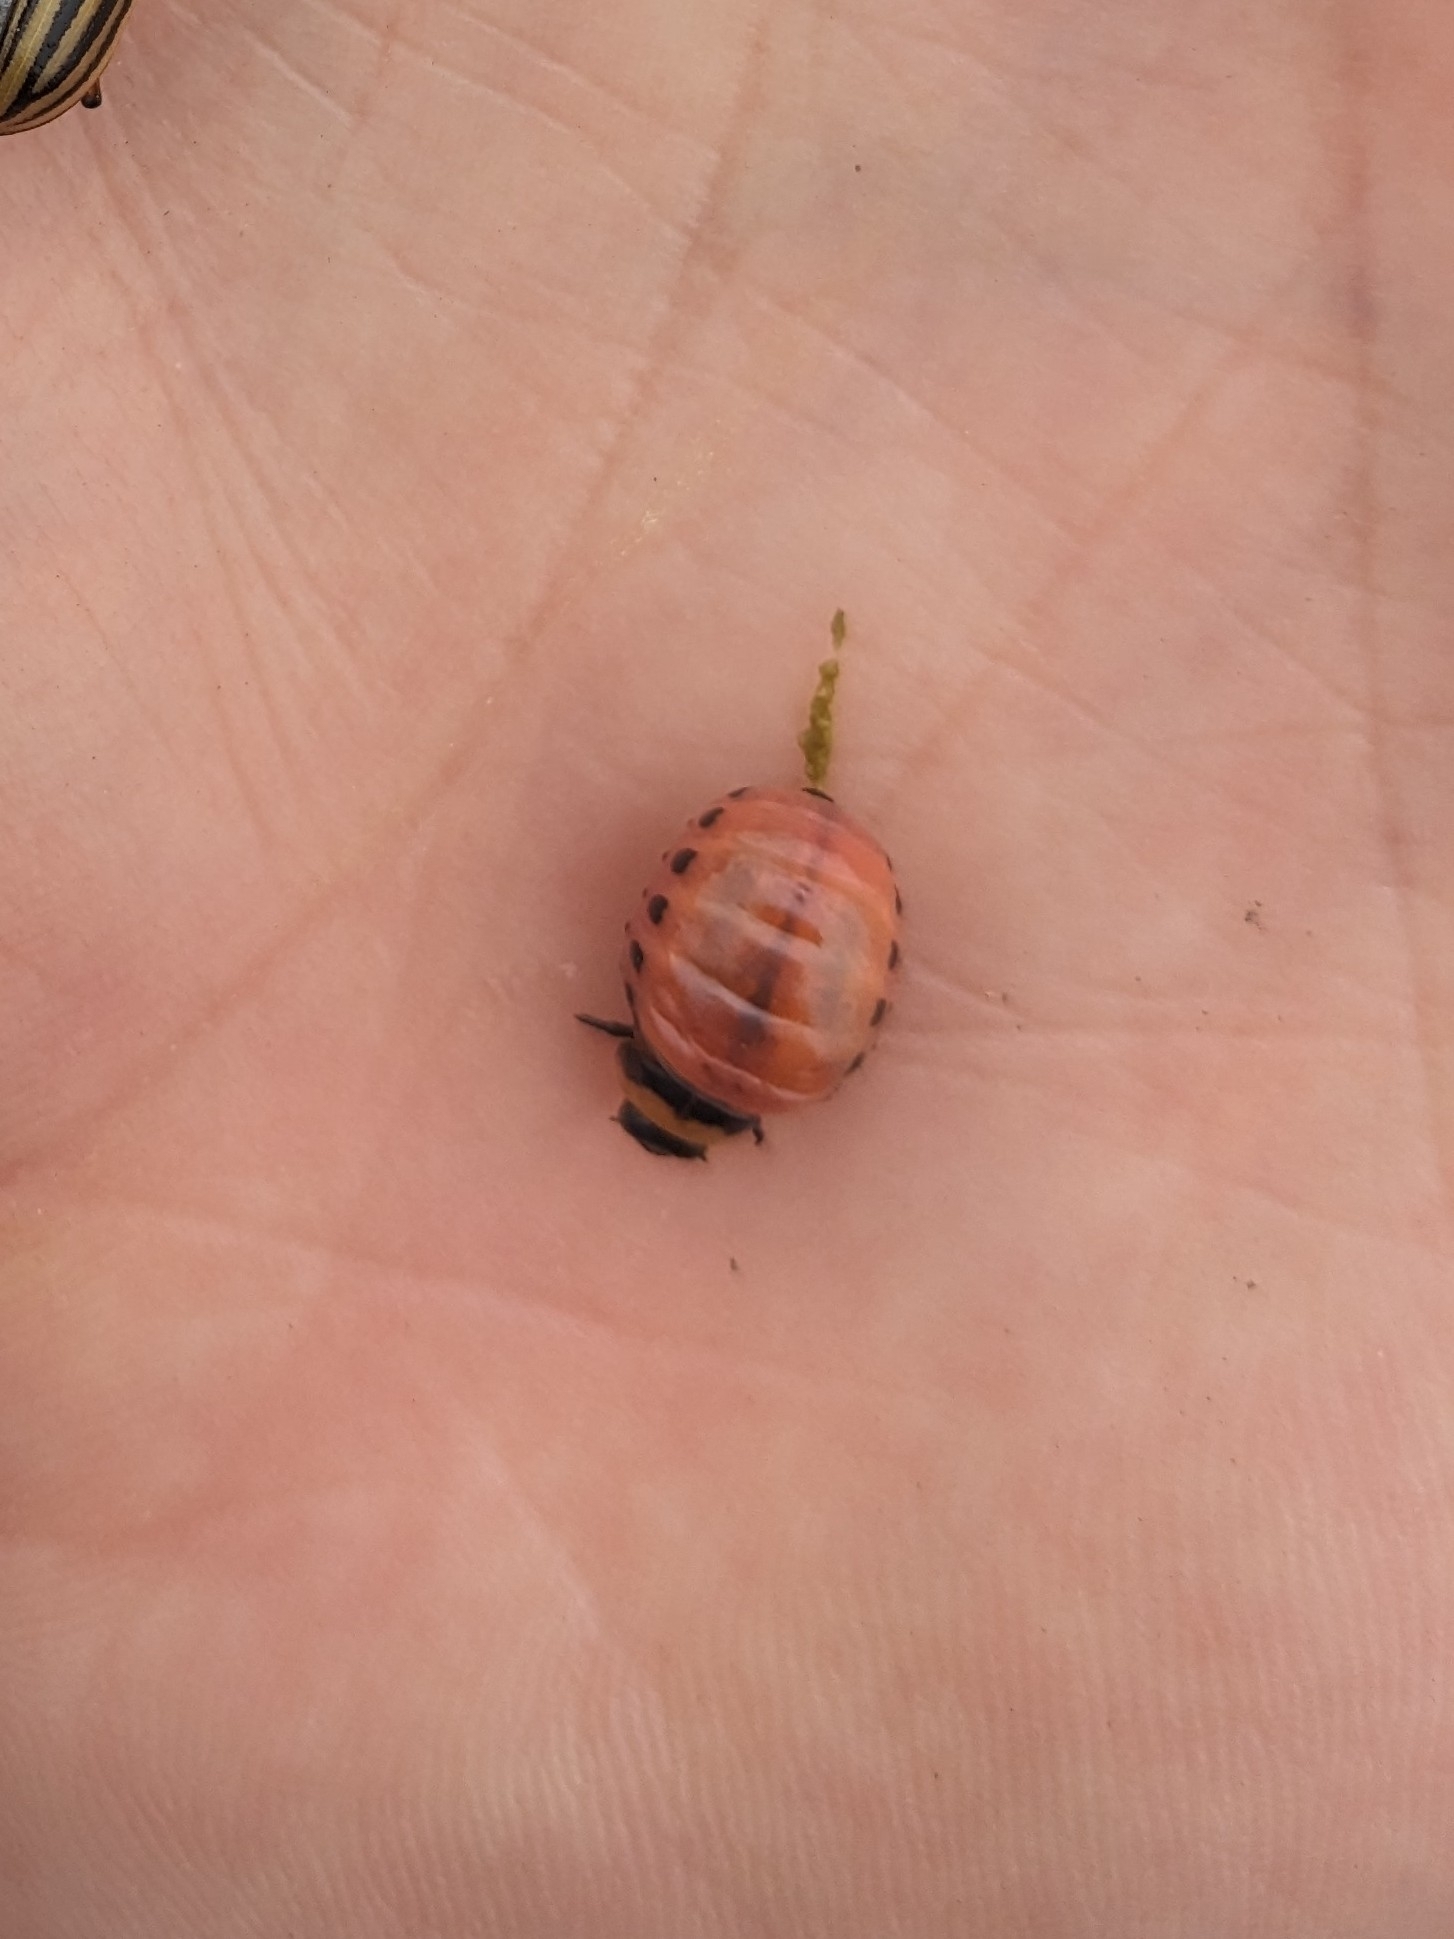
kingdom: Animalia
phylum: Arthropoda
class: Insecta
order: Coleoptera
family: Chrysomelidae
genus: Leptinotarsa
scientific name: Leptinotarsa decemlineata
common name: Colorado potato beetle
